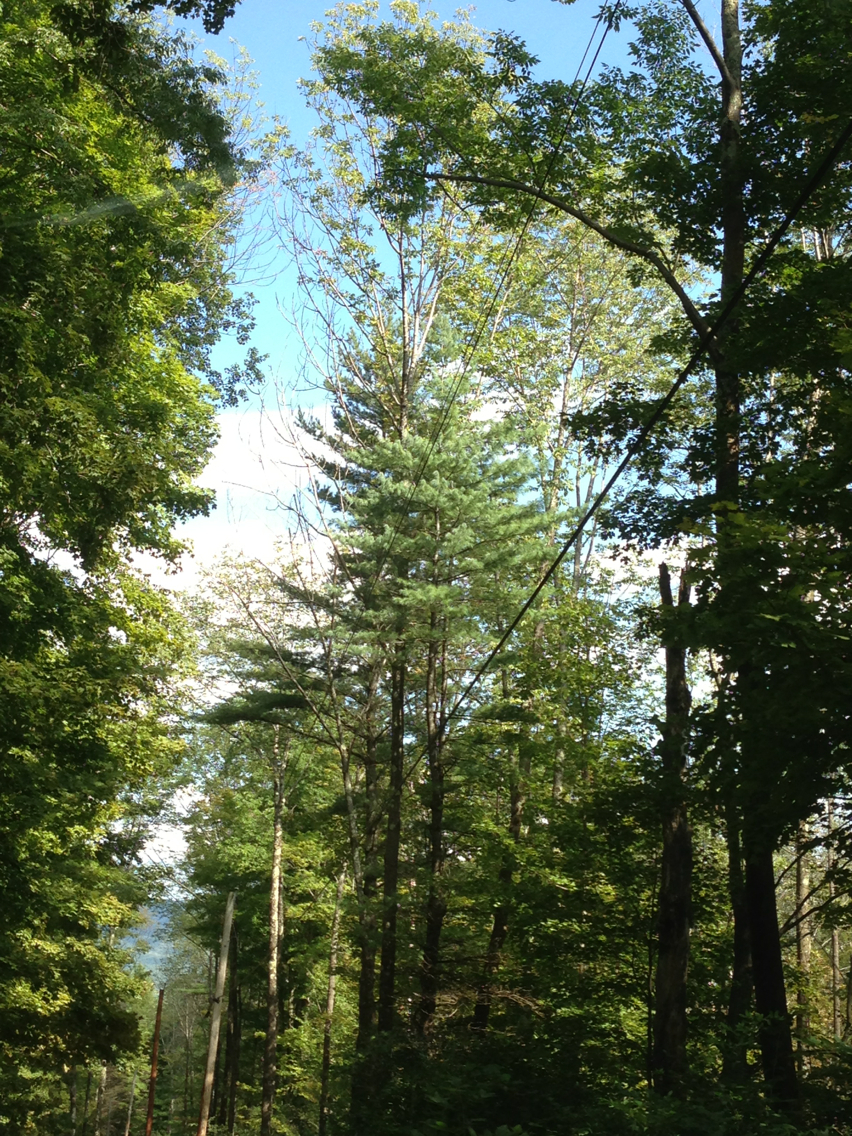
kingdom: Plantae
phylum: Tracheophyta
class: Pinopsida
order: Pinales
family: Pinaceae
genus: Pinus
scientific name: Pinus strobus
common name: Weymouth pine
